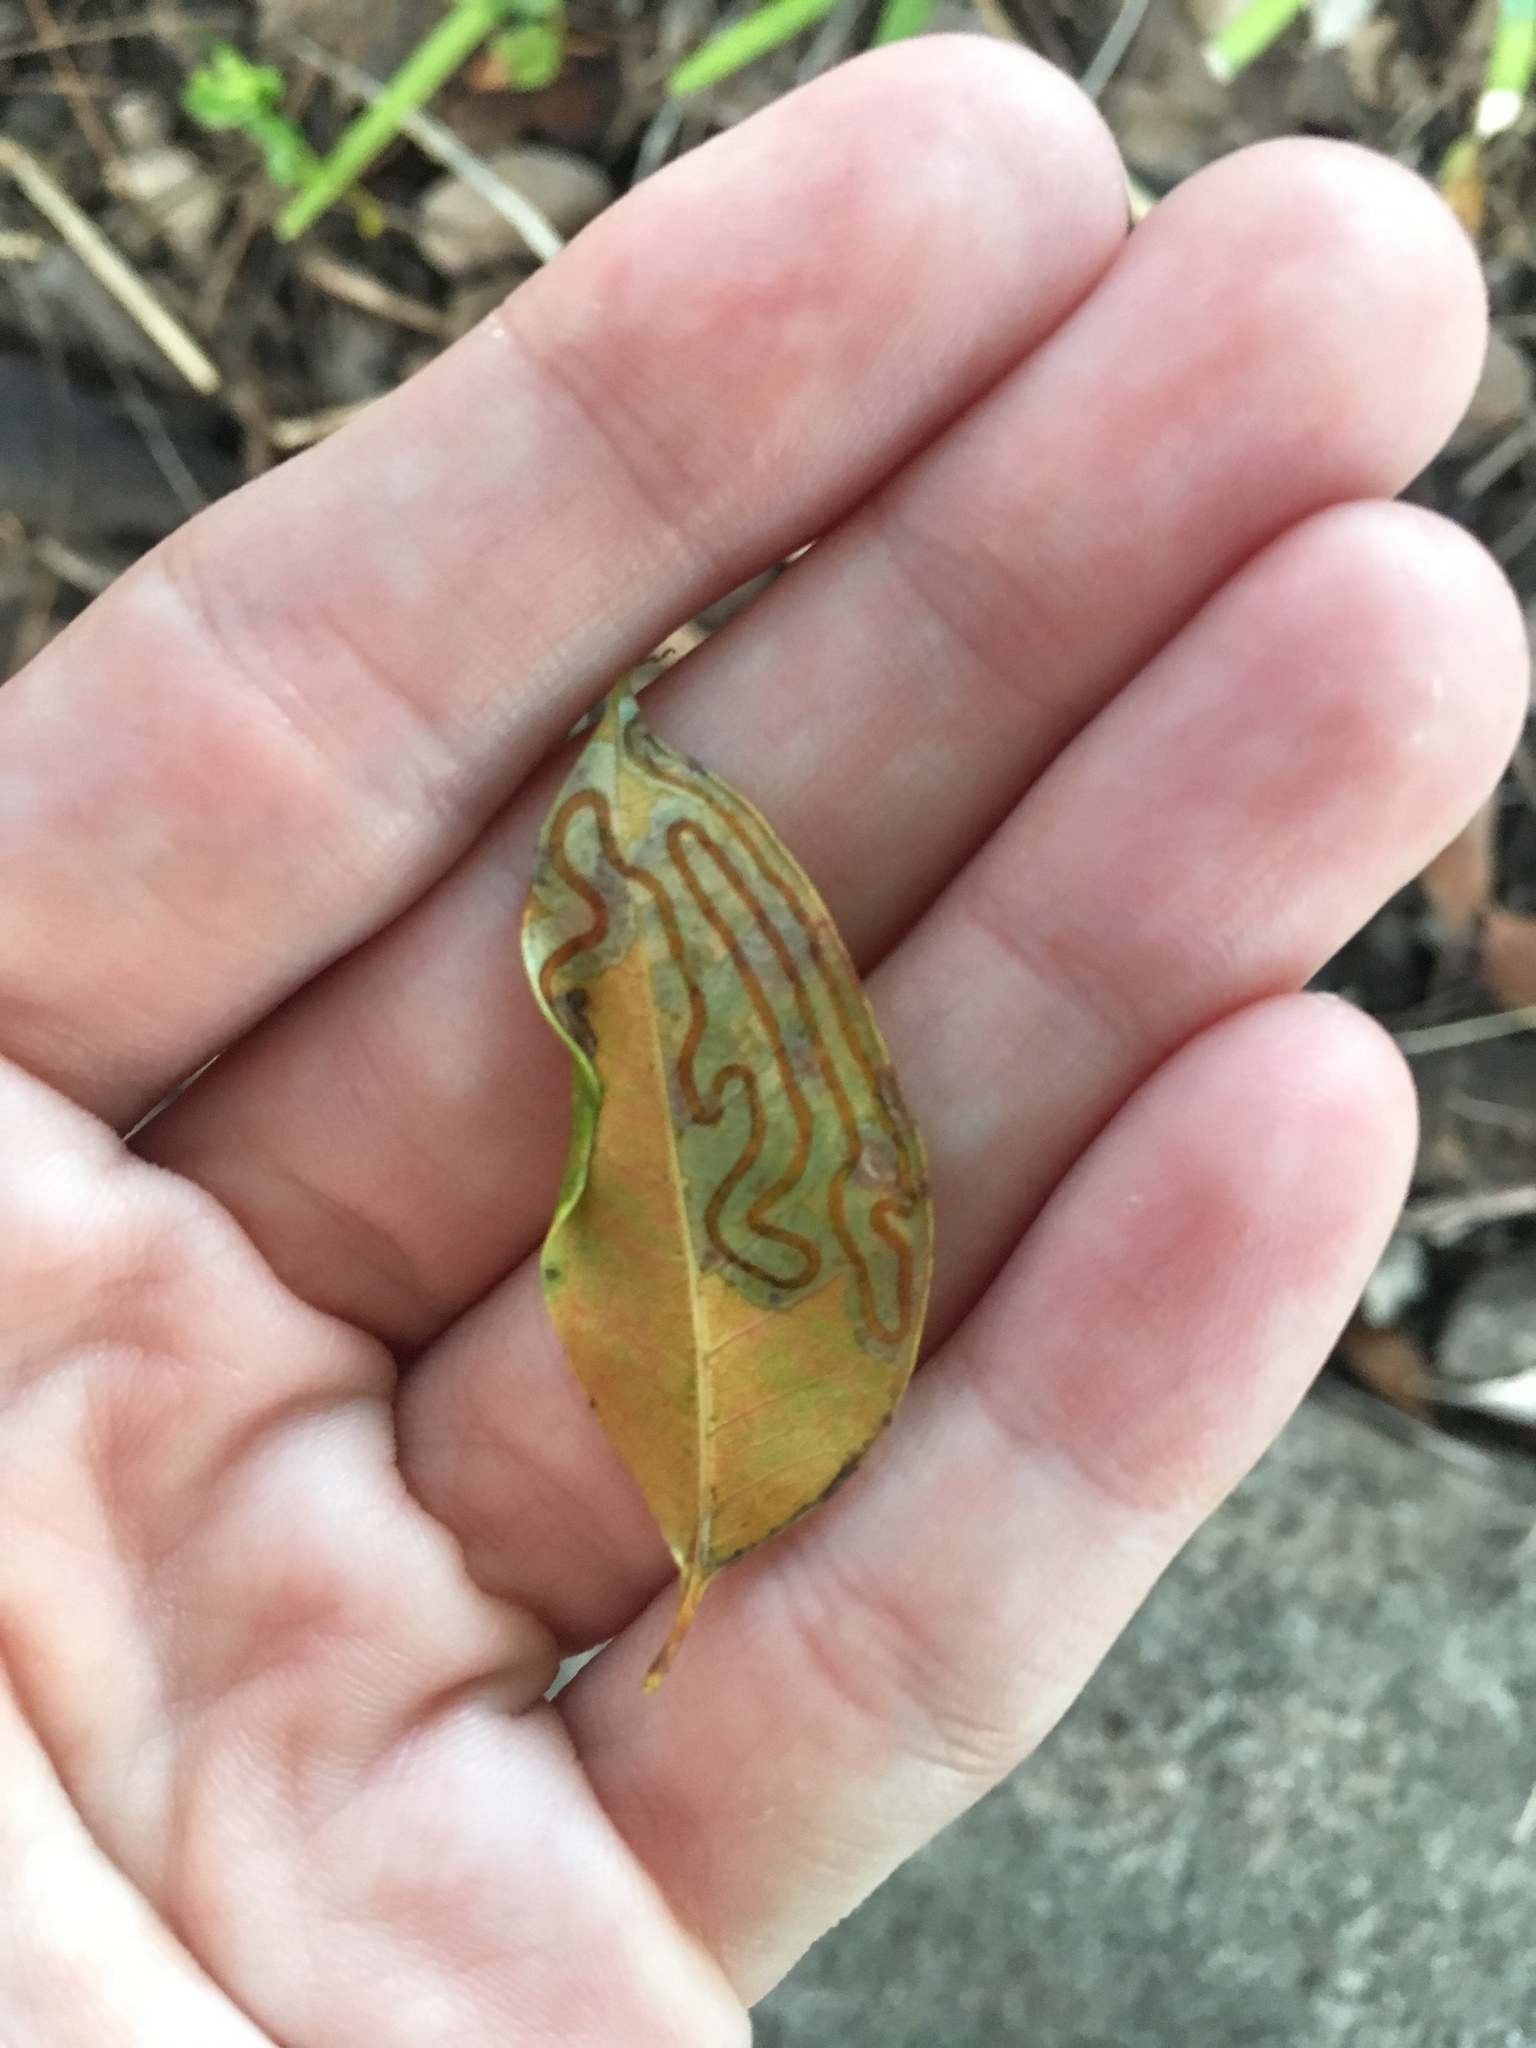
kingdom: Animalia
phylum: Arthropoda
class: Insecta
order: Lepidoptera
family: Gracillariidae
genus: Phyllocnistis
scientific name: Phyllocnistis meliacella
